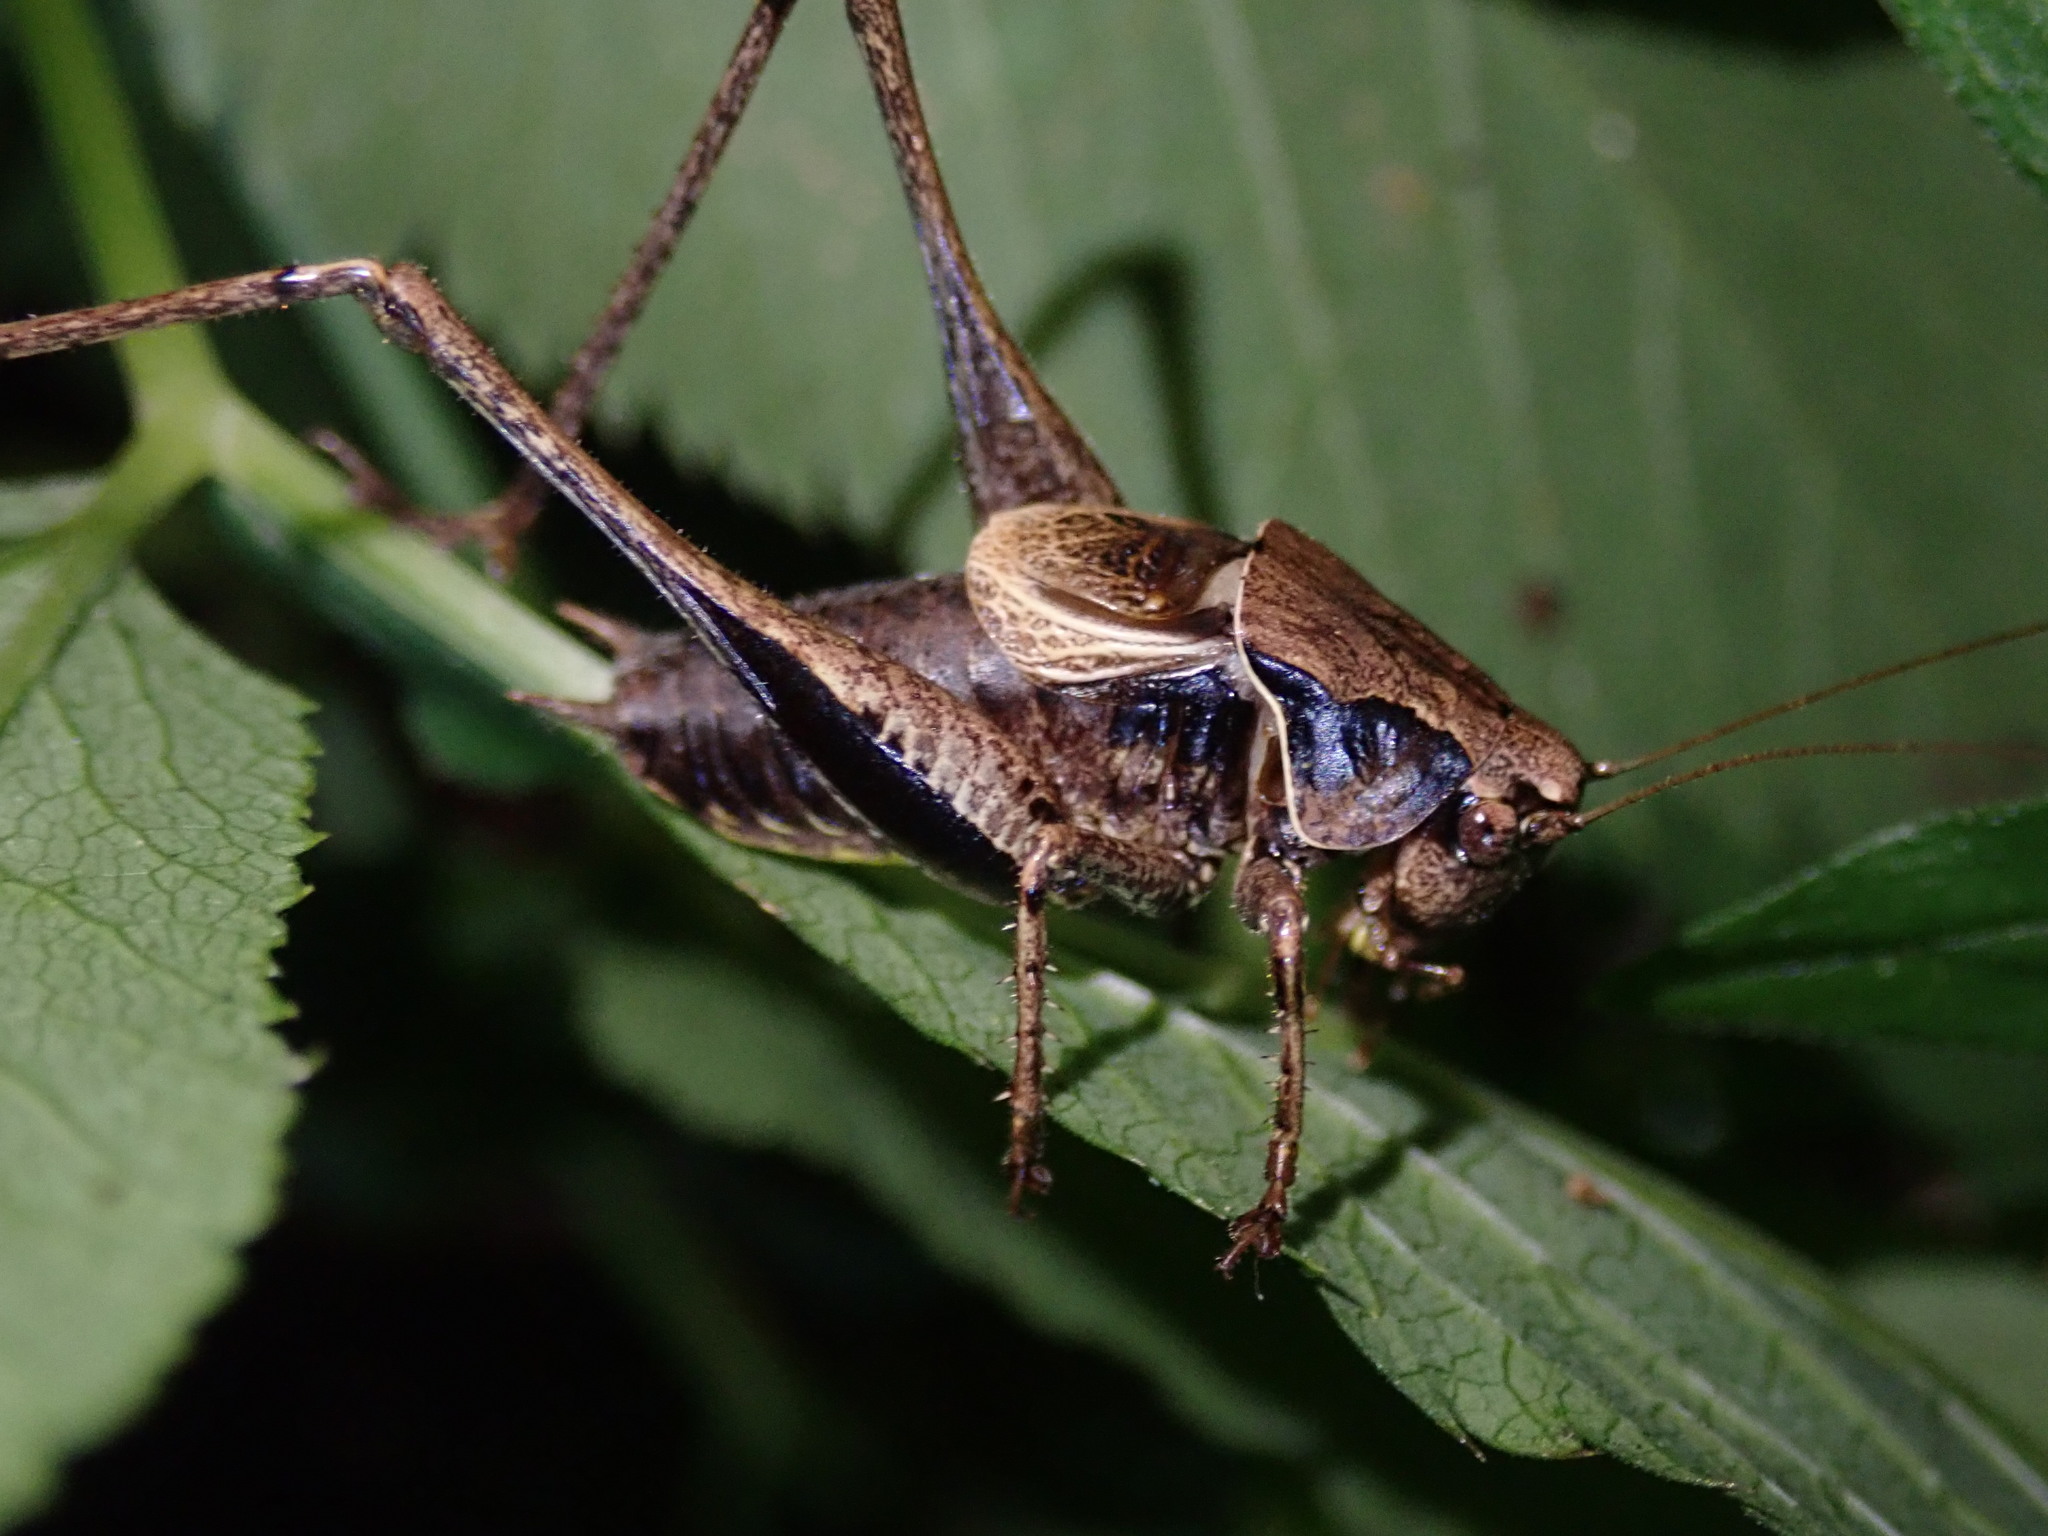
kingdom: Animalia
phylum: Arthropoda
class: Insecta
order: Orthoptera
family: Tettigoniidae
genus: Pholidoptera
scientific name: Pholidoptera griseoaptera
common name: Dark bush-cricket
